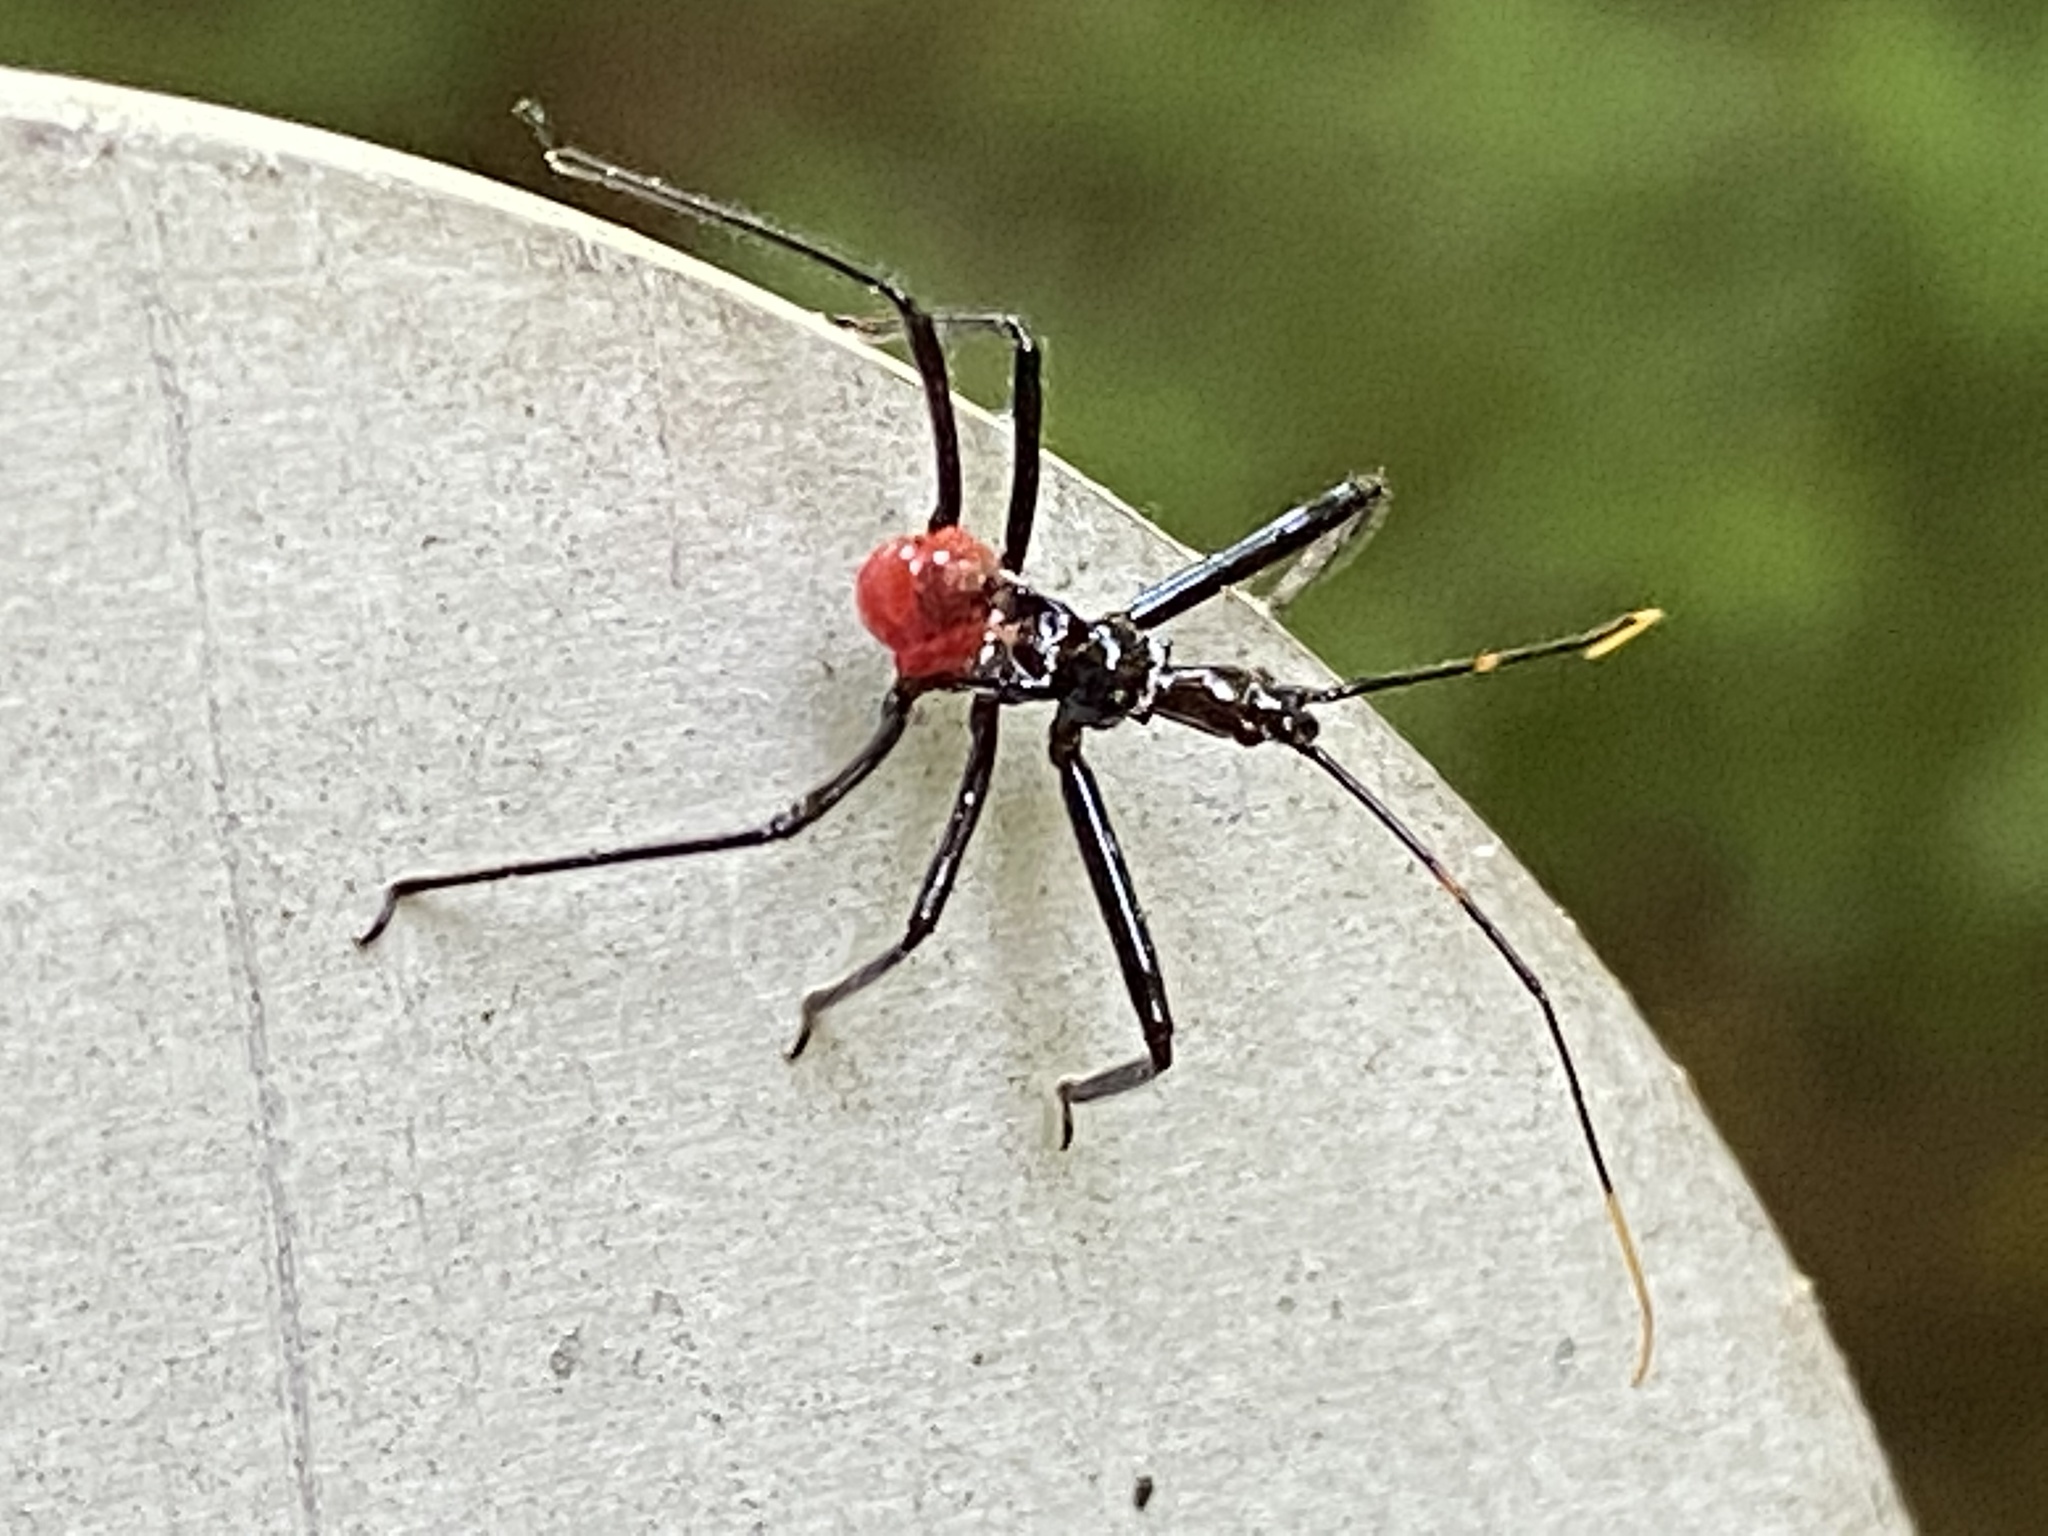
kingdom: Animalia
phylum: Arthropoda
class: Insecta
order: Hemiptera
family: Reduviidae
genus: Arilus
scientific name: Arilus cristatus
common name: North american wheel bug
